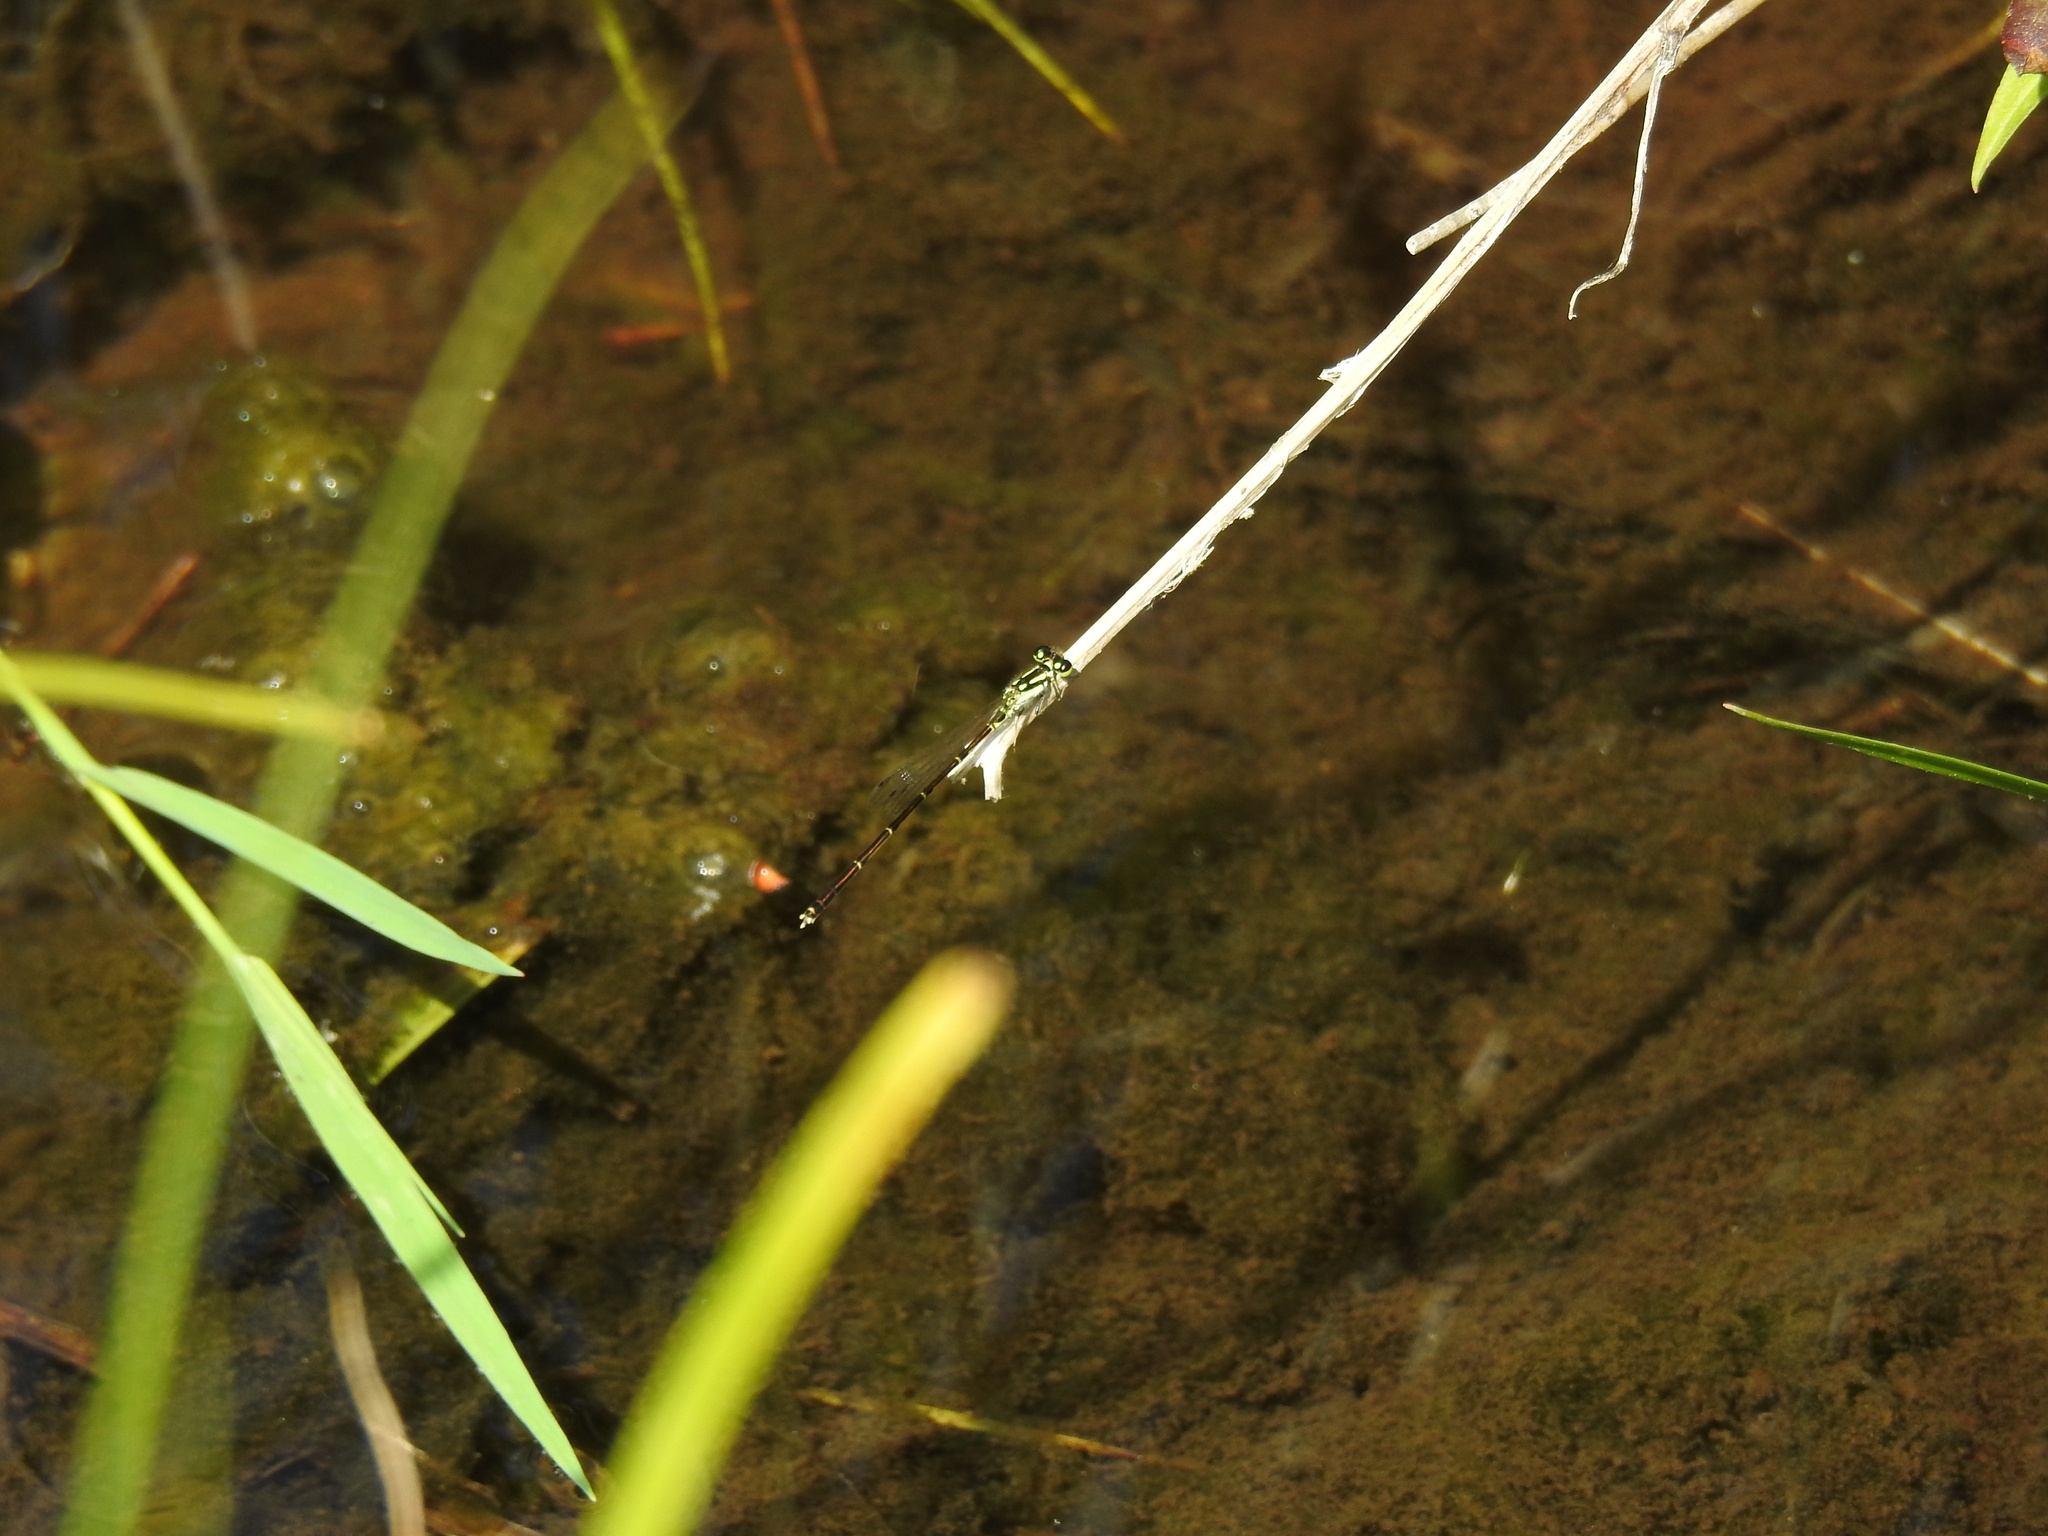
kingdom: Animalia
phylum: Arthropoda
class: Insecta
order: Odonata
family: Coenagrionidae
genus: Ischnura
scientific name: Ischnura posita
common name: Fragile forktail
